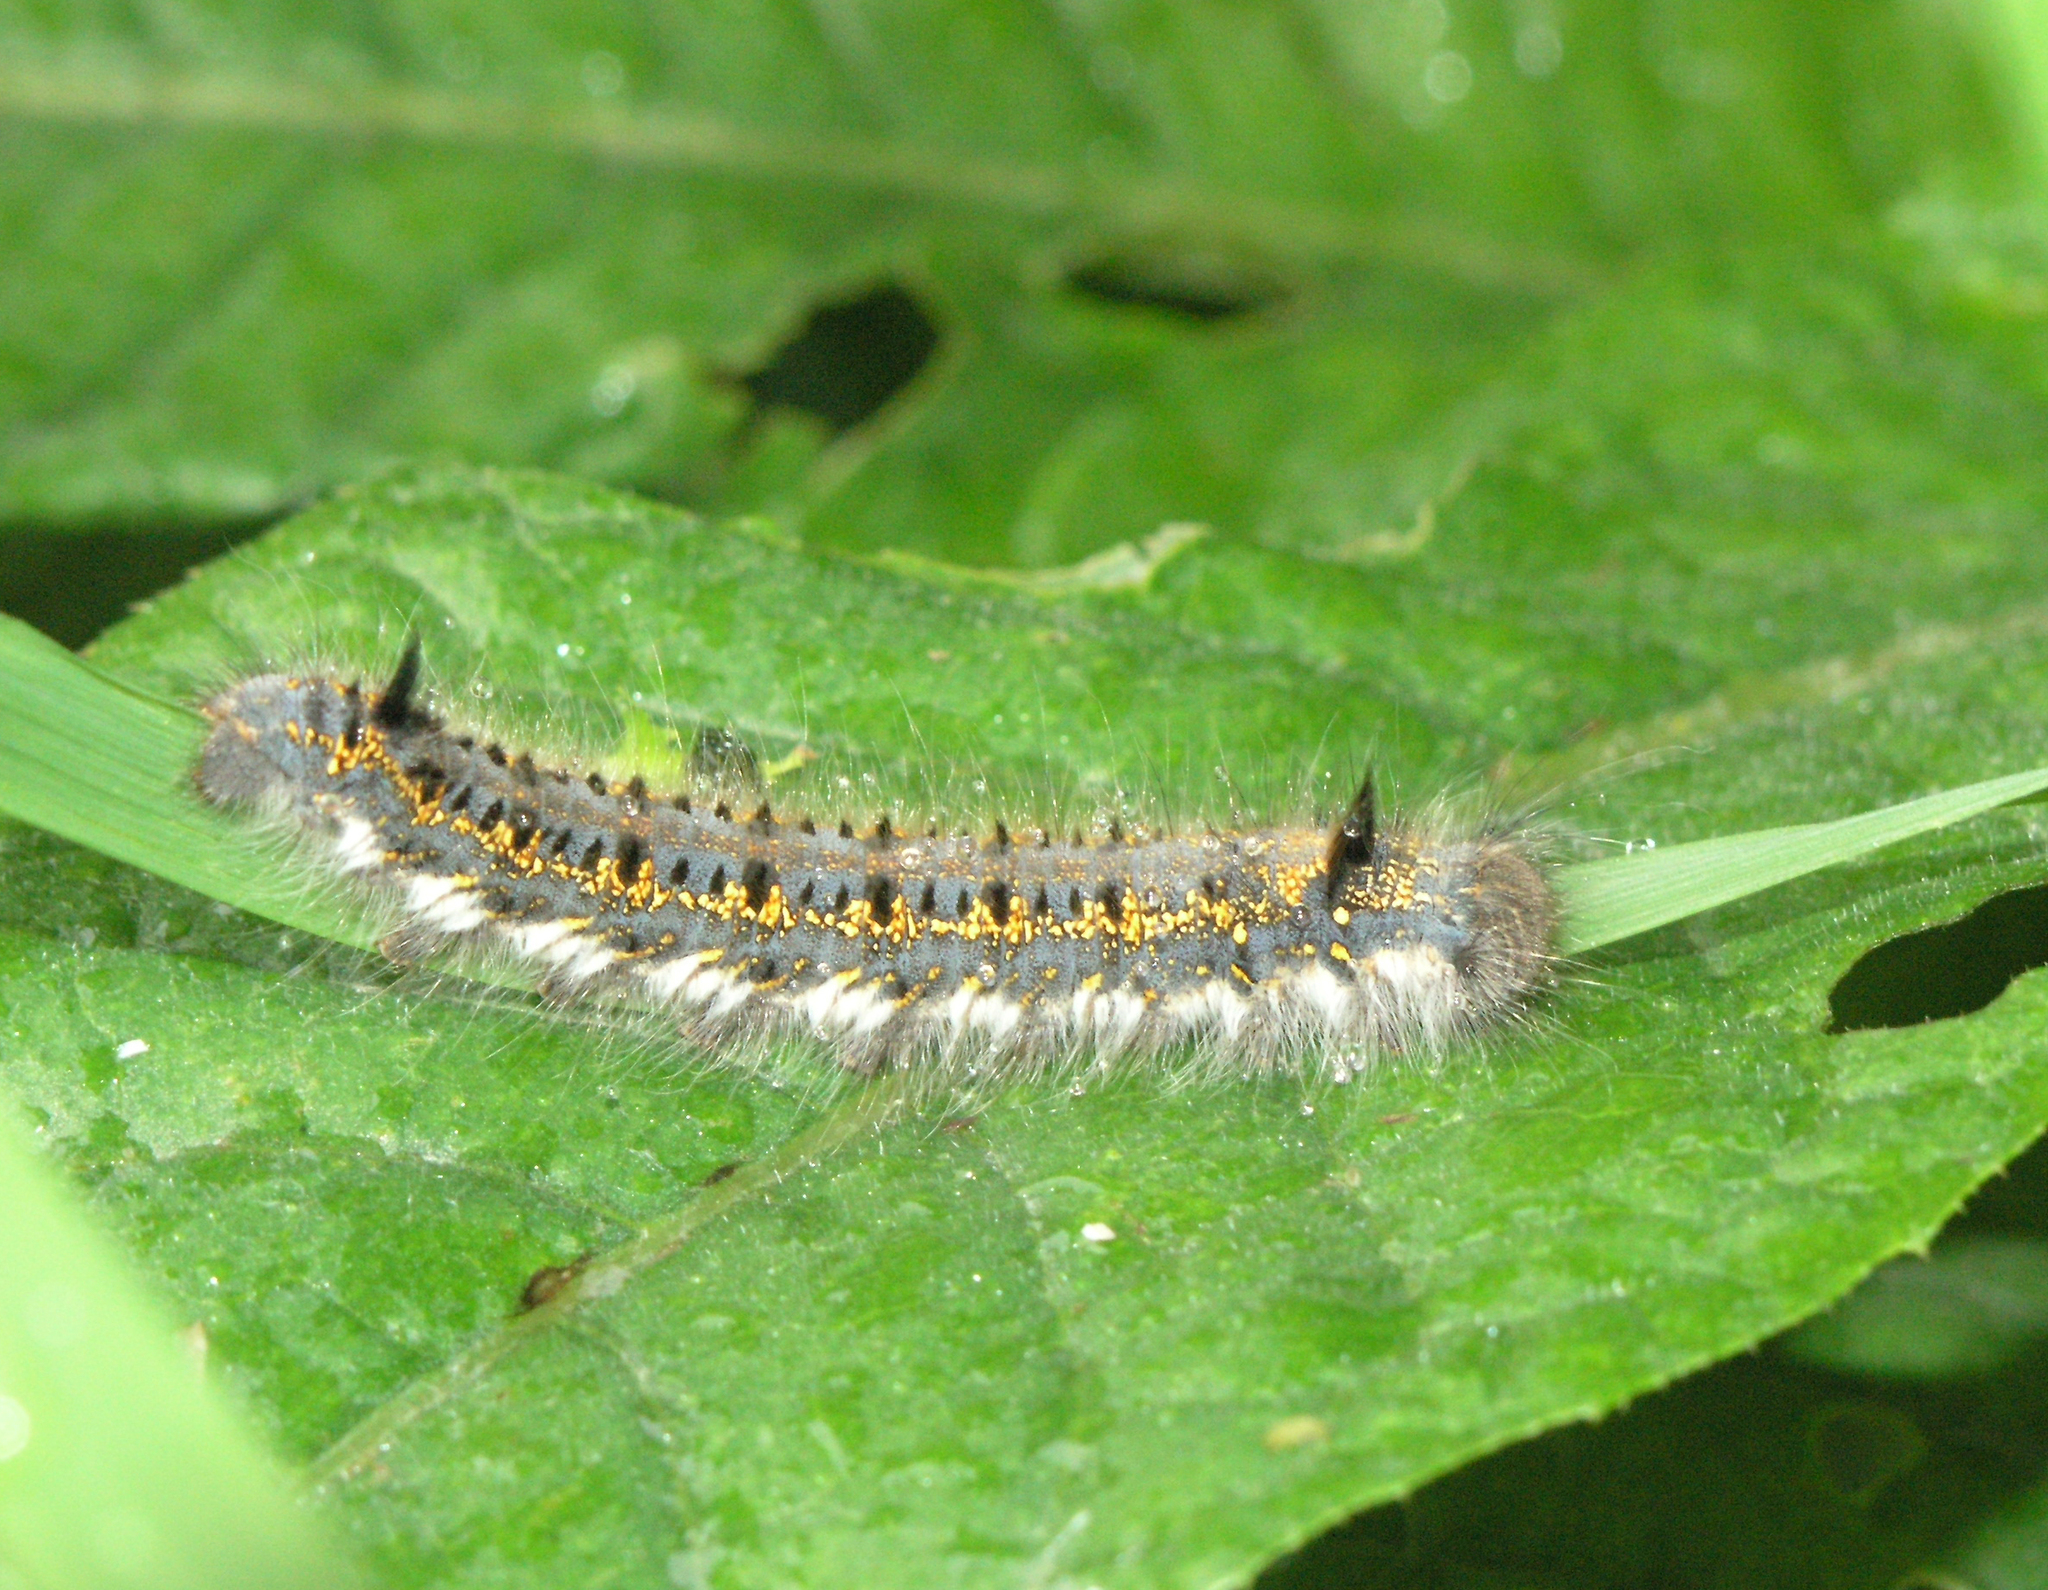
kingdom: Animalia
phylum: Arthropoda
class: Insecta
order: Lepidoptera
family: Lasiocampidae
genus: Euthrix
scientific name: Euthrix potatoria
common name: Drinker
